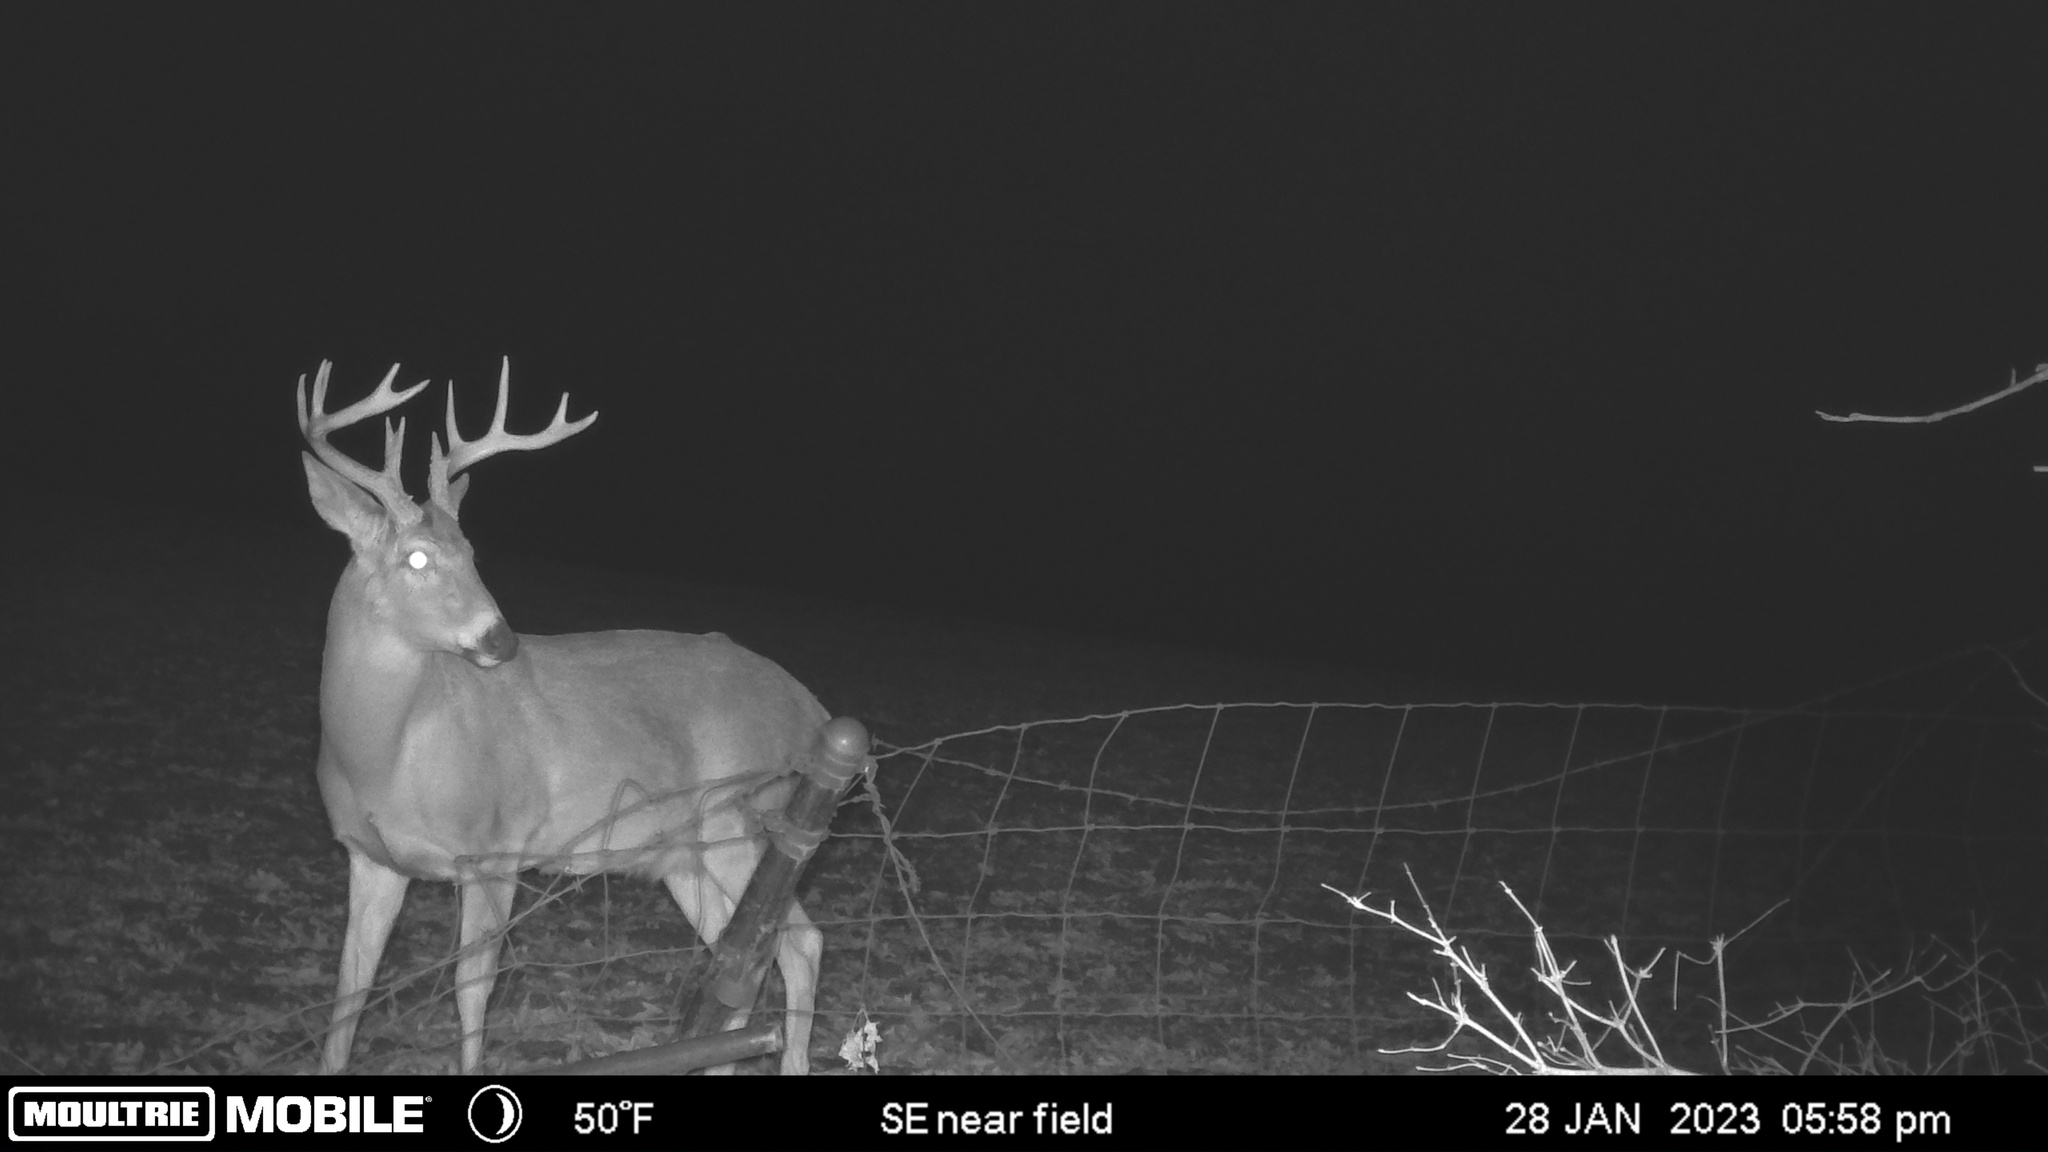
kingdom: Animalia
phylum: Chordata
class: Mammalia
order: Artiodactyla
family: Cervidae
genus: Odocoileus
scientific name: Odocoileus virginianus
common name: White-tailed deer
